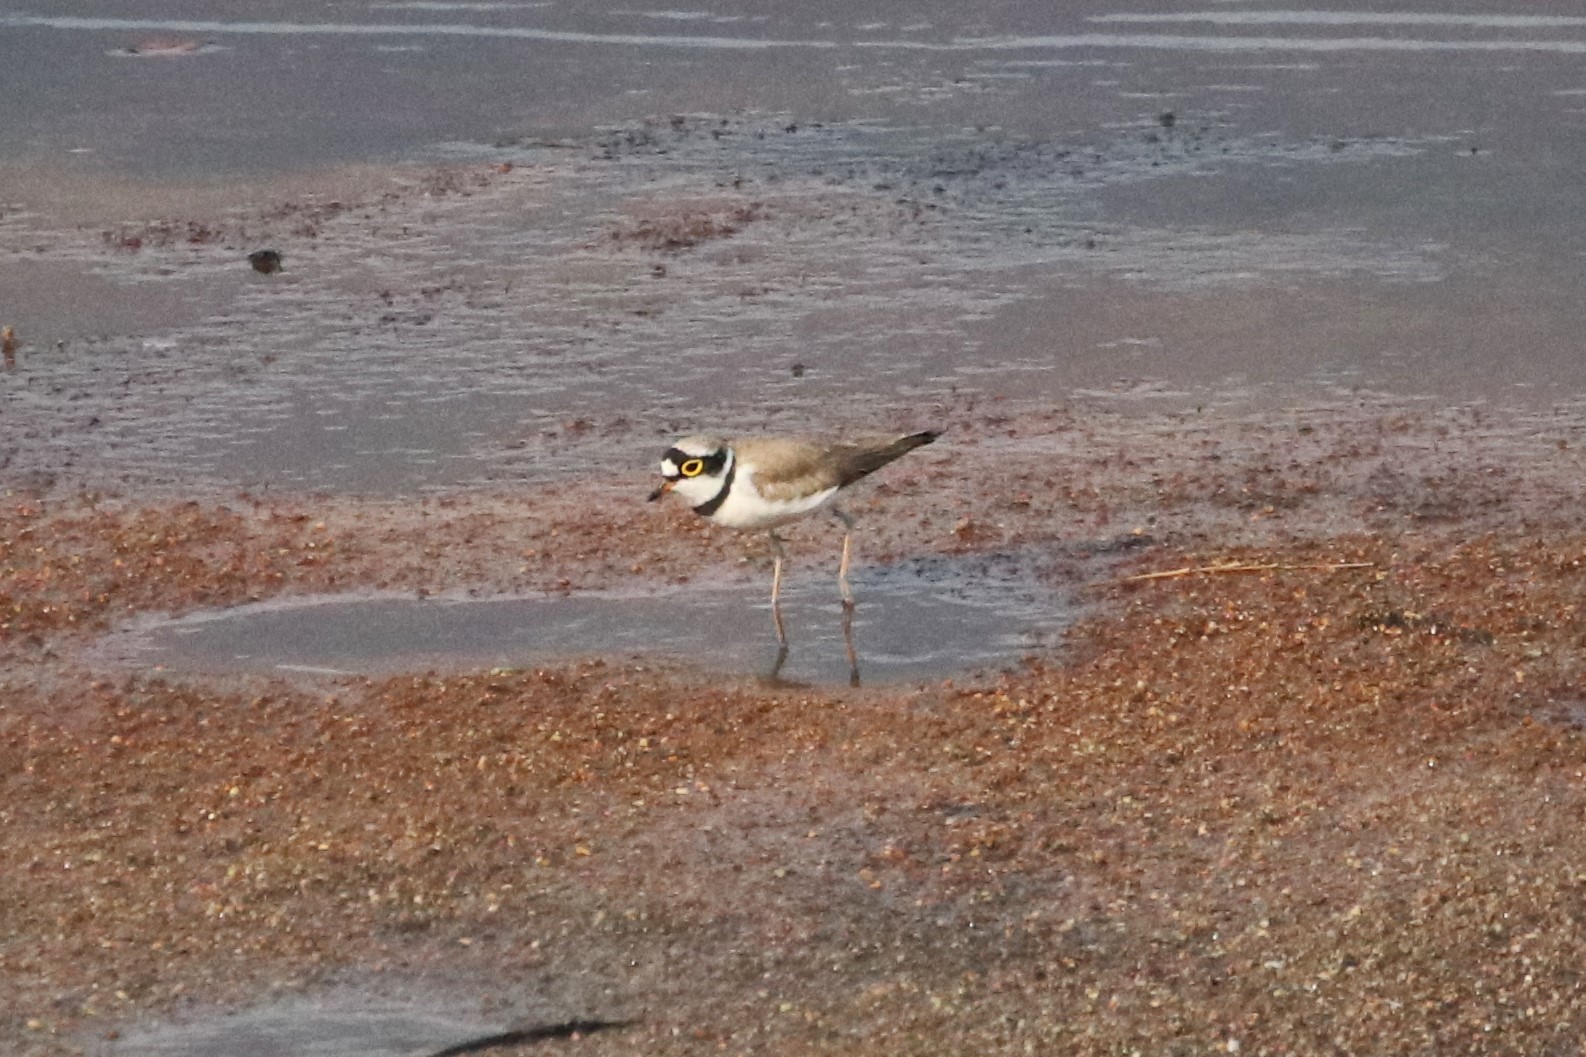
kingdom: Animalia
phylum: Chordata
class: Aves
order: Charadriiformes
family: Charadriidae
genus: Charadrius
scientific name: Charadrius dubius
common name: Little ringed plover
